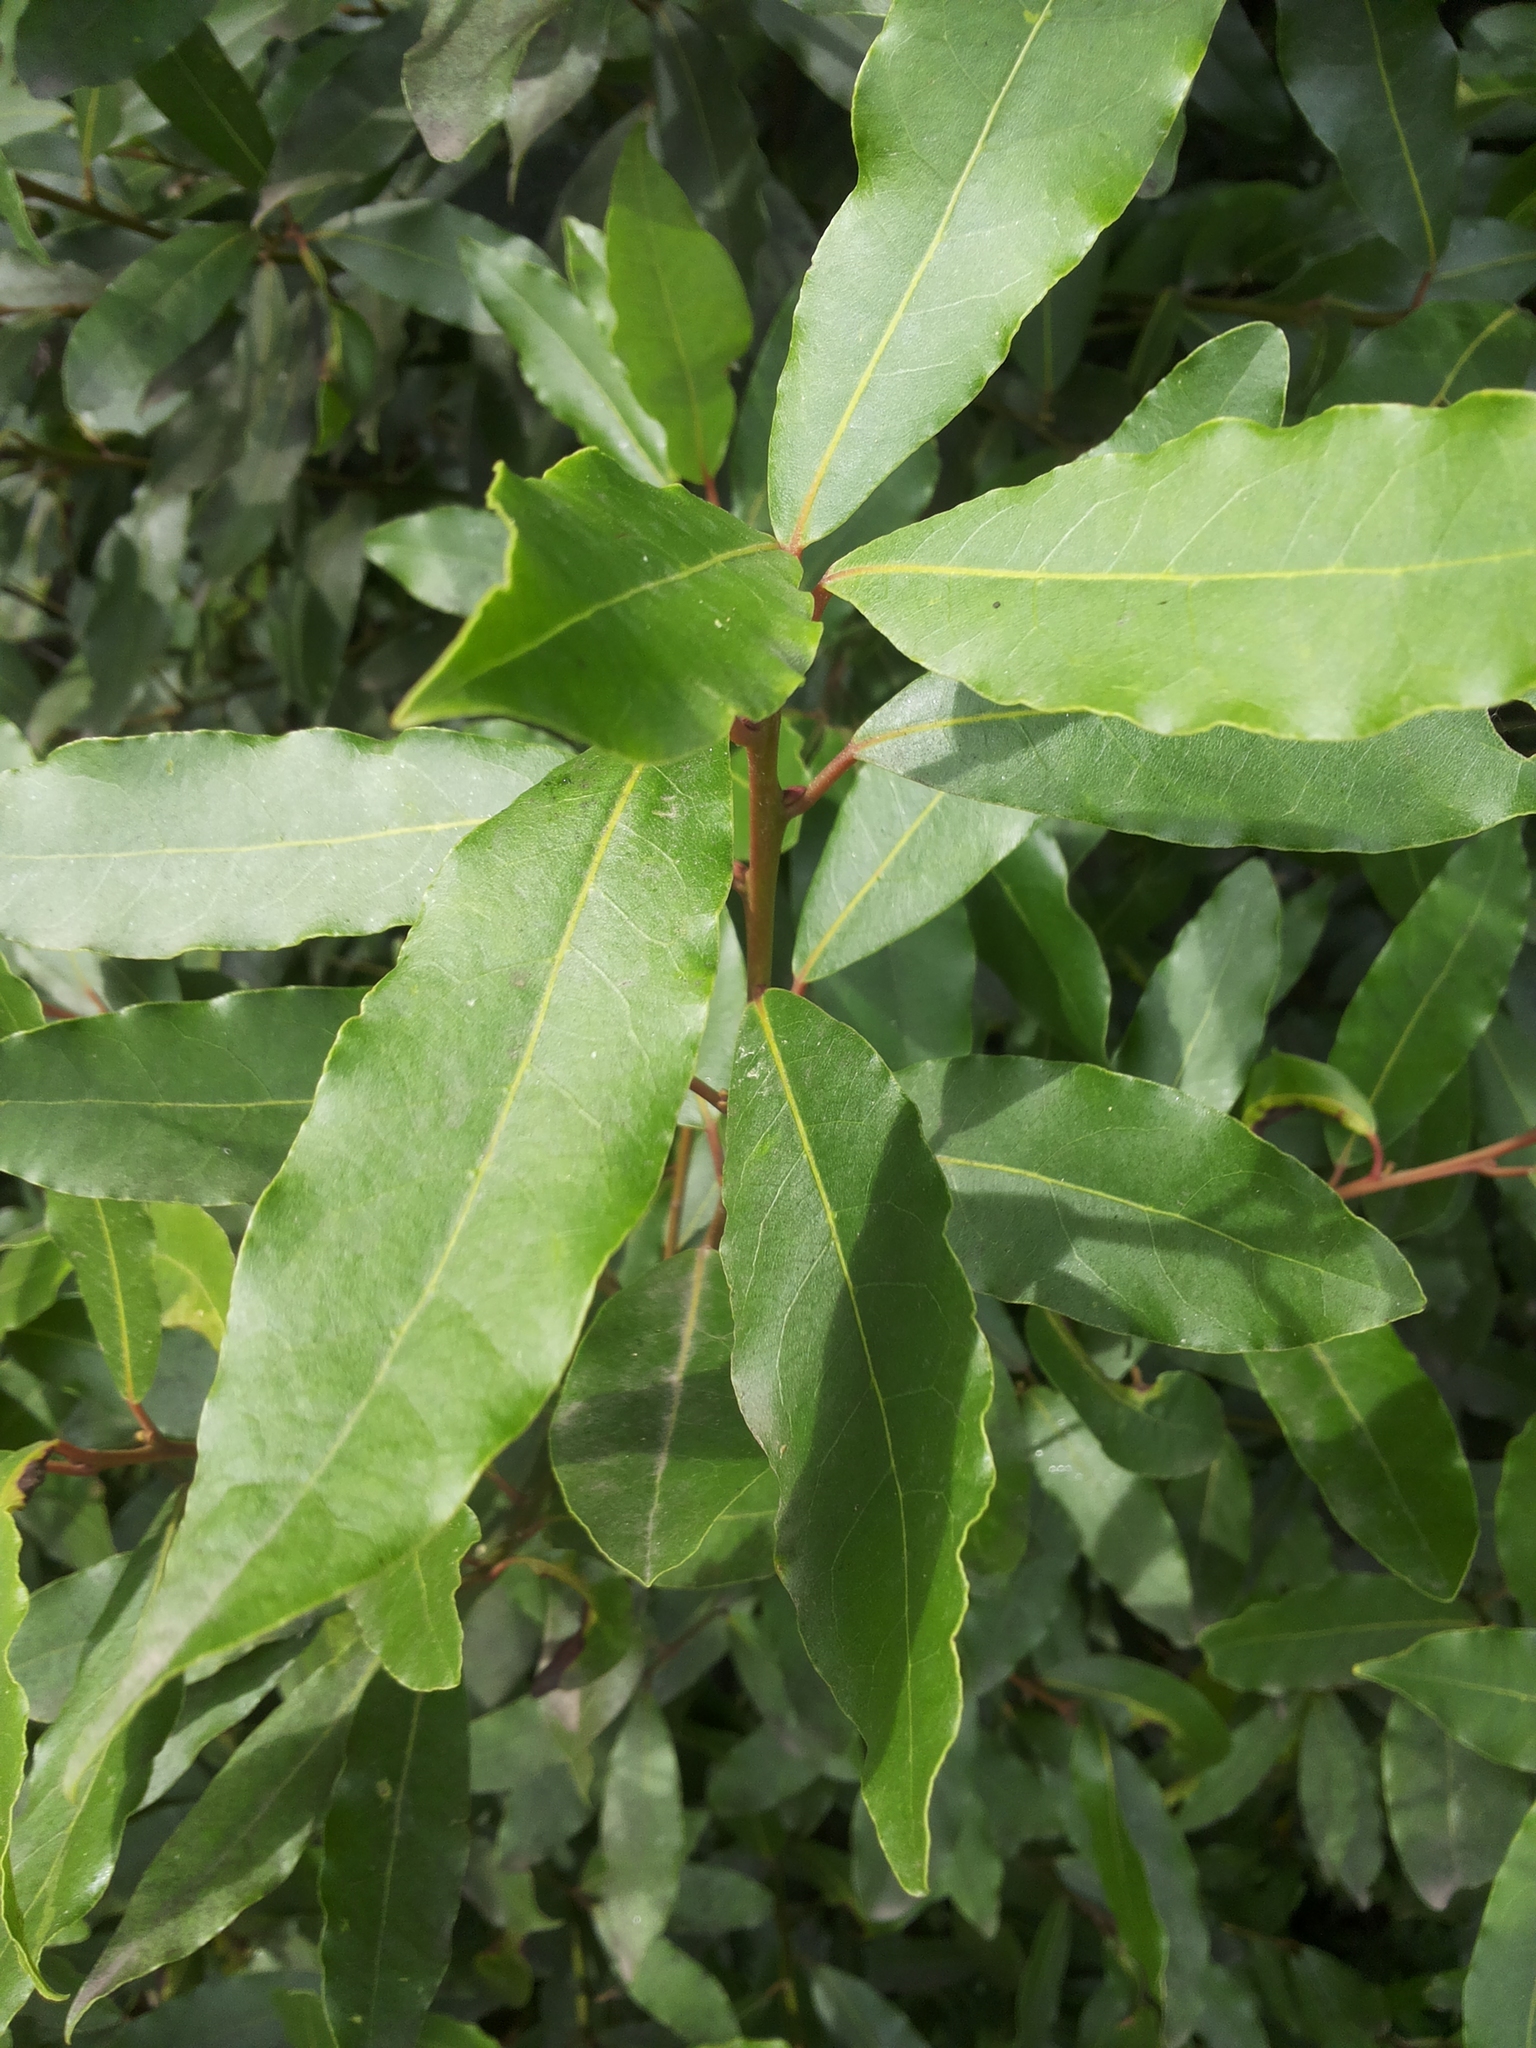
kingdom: Plantae
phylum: Tracheophyta
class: Magnoliopsida
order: Laurales
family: Lauraceae
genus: Laurus
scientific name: Laurus nobilis
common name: Bay
